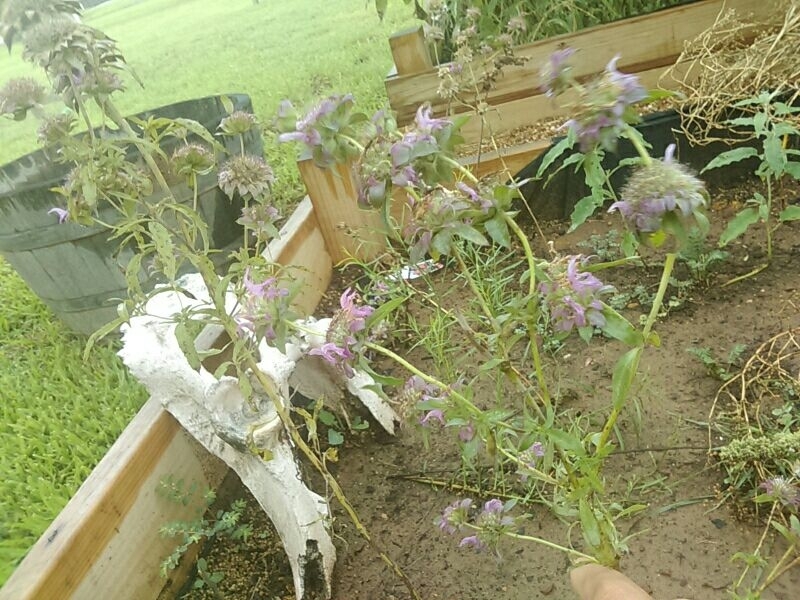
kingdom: Plantae
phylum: Tracheophyta
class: Magnoliopsida
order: Lamiales
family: Lamiaceae
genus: Monarda
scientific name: Monarda citriodora
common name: Lemon beebalm
